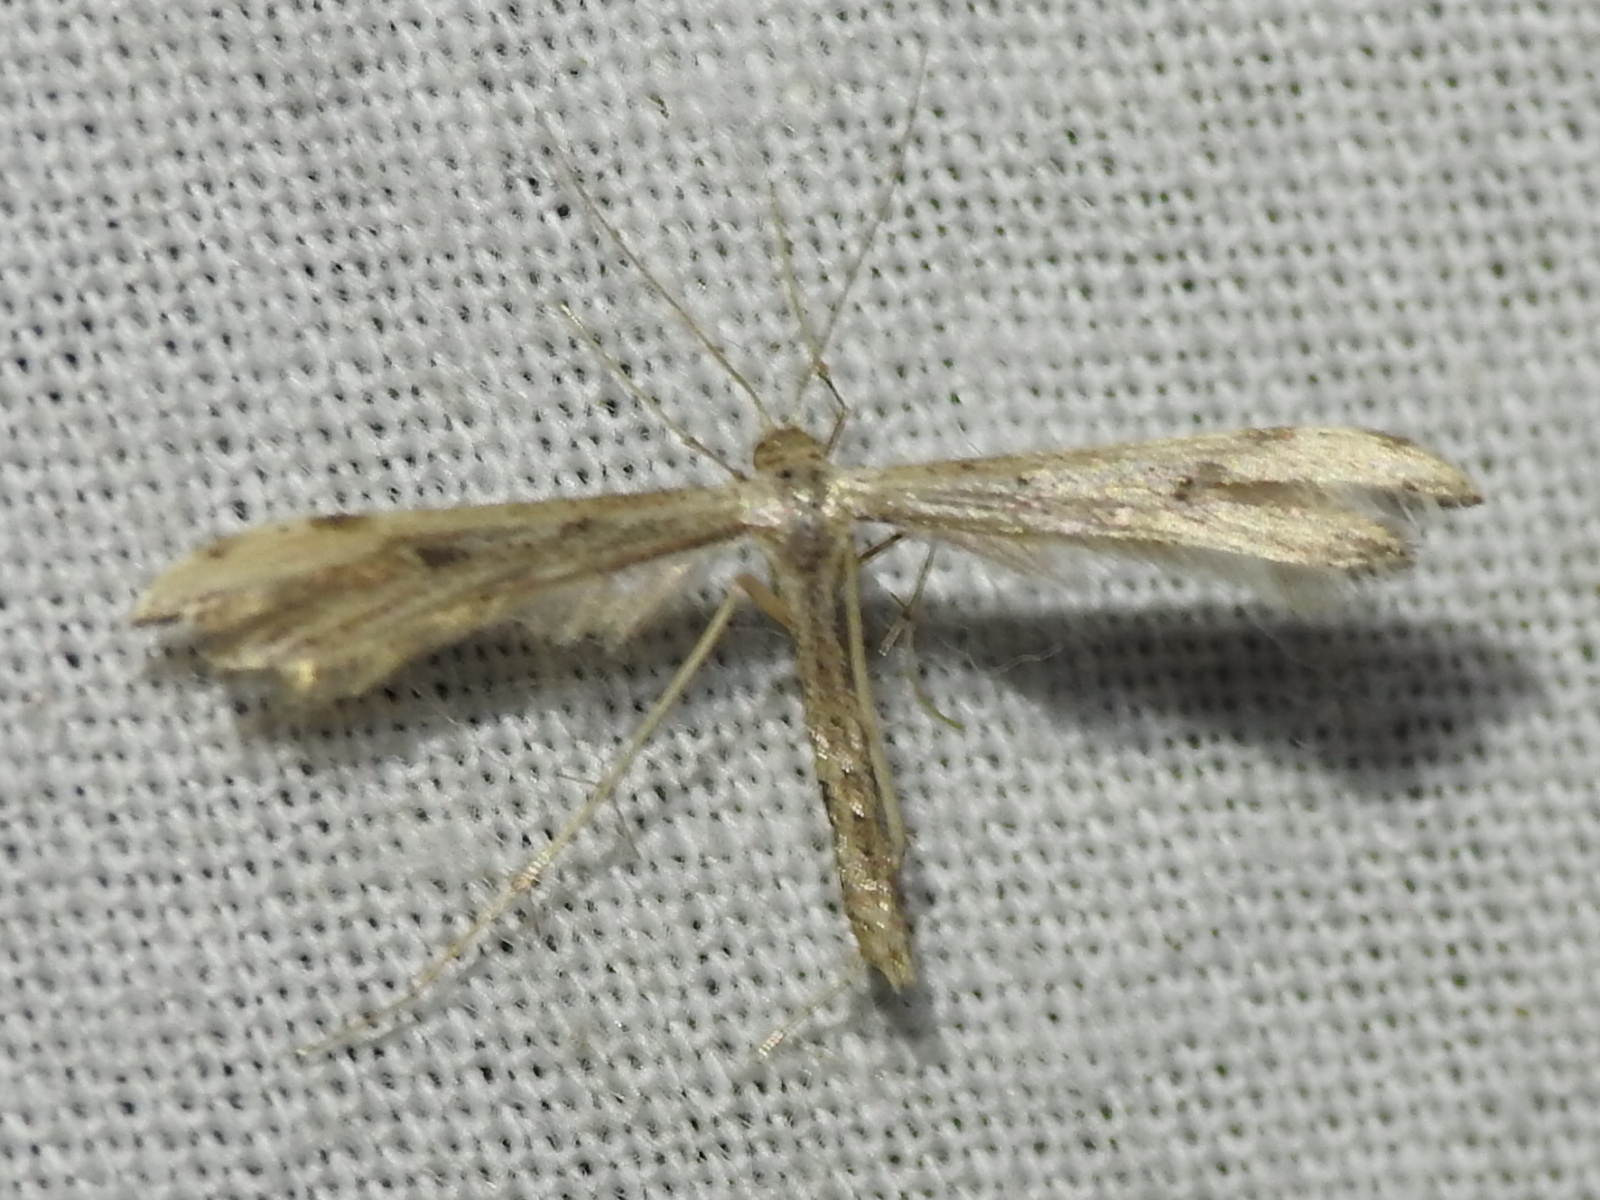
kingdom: Animalia
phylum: Arthropoda
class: Insecta
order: Lepidoptera
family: Pterophoridae
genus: Adaina
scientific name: Adaina ambrosiae
